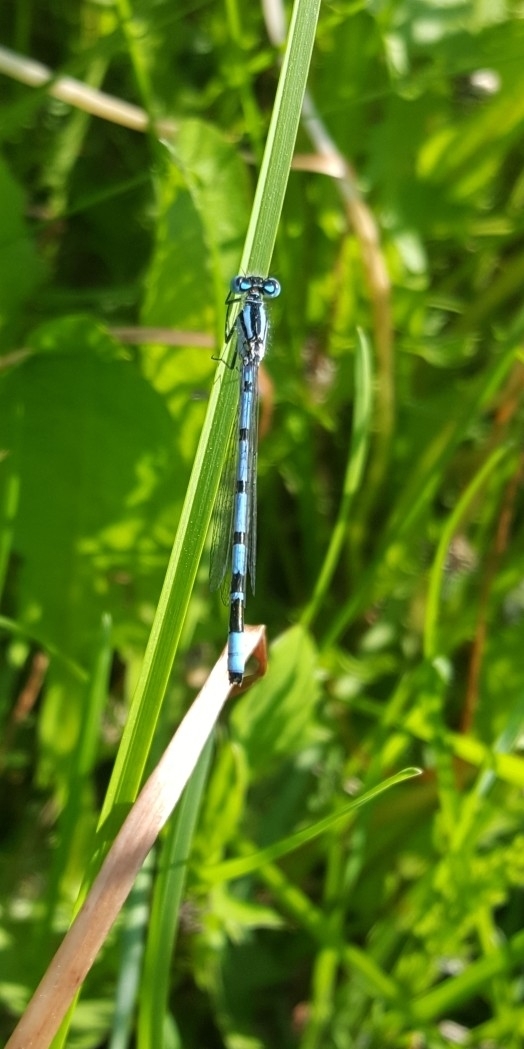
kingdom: Animalia
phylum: Arthropoda
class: Insecta
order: Odonata
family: Coenagrionidae
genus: Enallagma
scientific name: Enallagma cyathigerum
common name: Common blue damselfly
